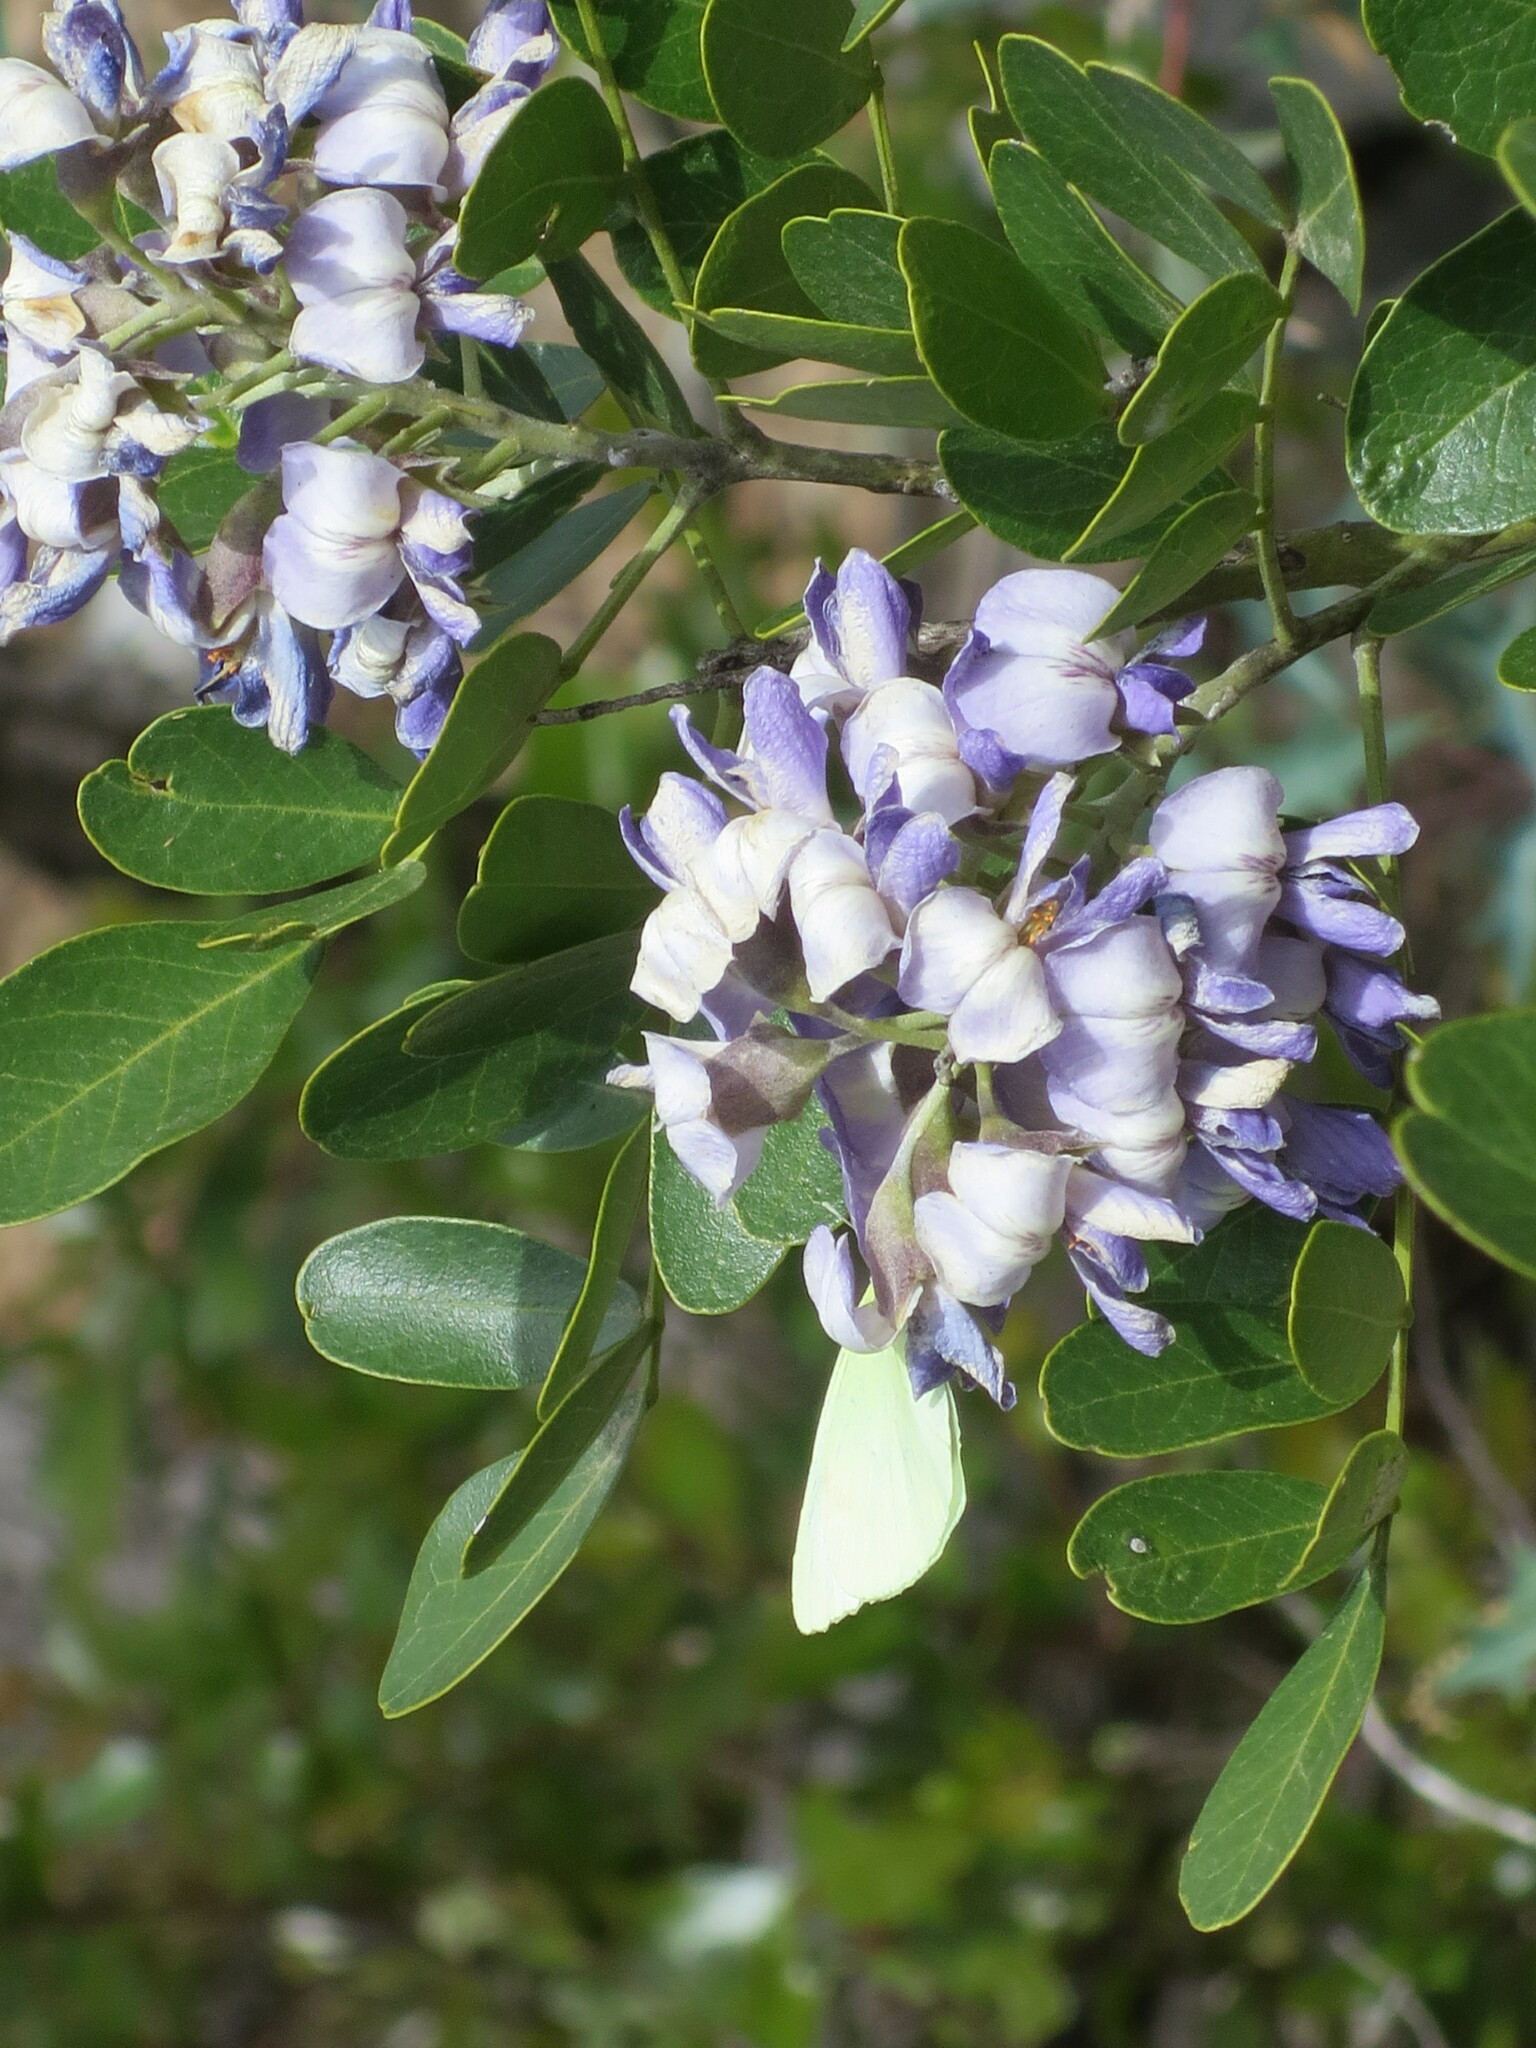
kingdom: Animalia
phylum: Arthropoda
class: Insecta
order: Lepidoptera
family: Pieridae
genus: Kricogonia
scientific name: Kricogonia lyside
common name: Guayacan sulphur,
